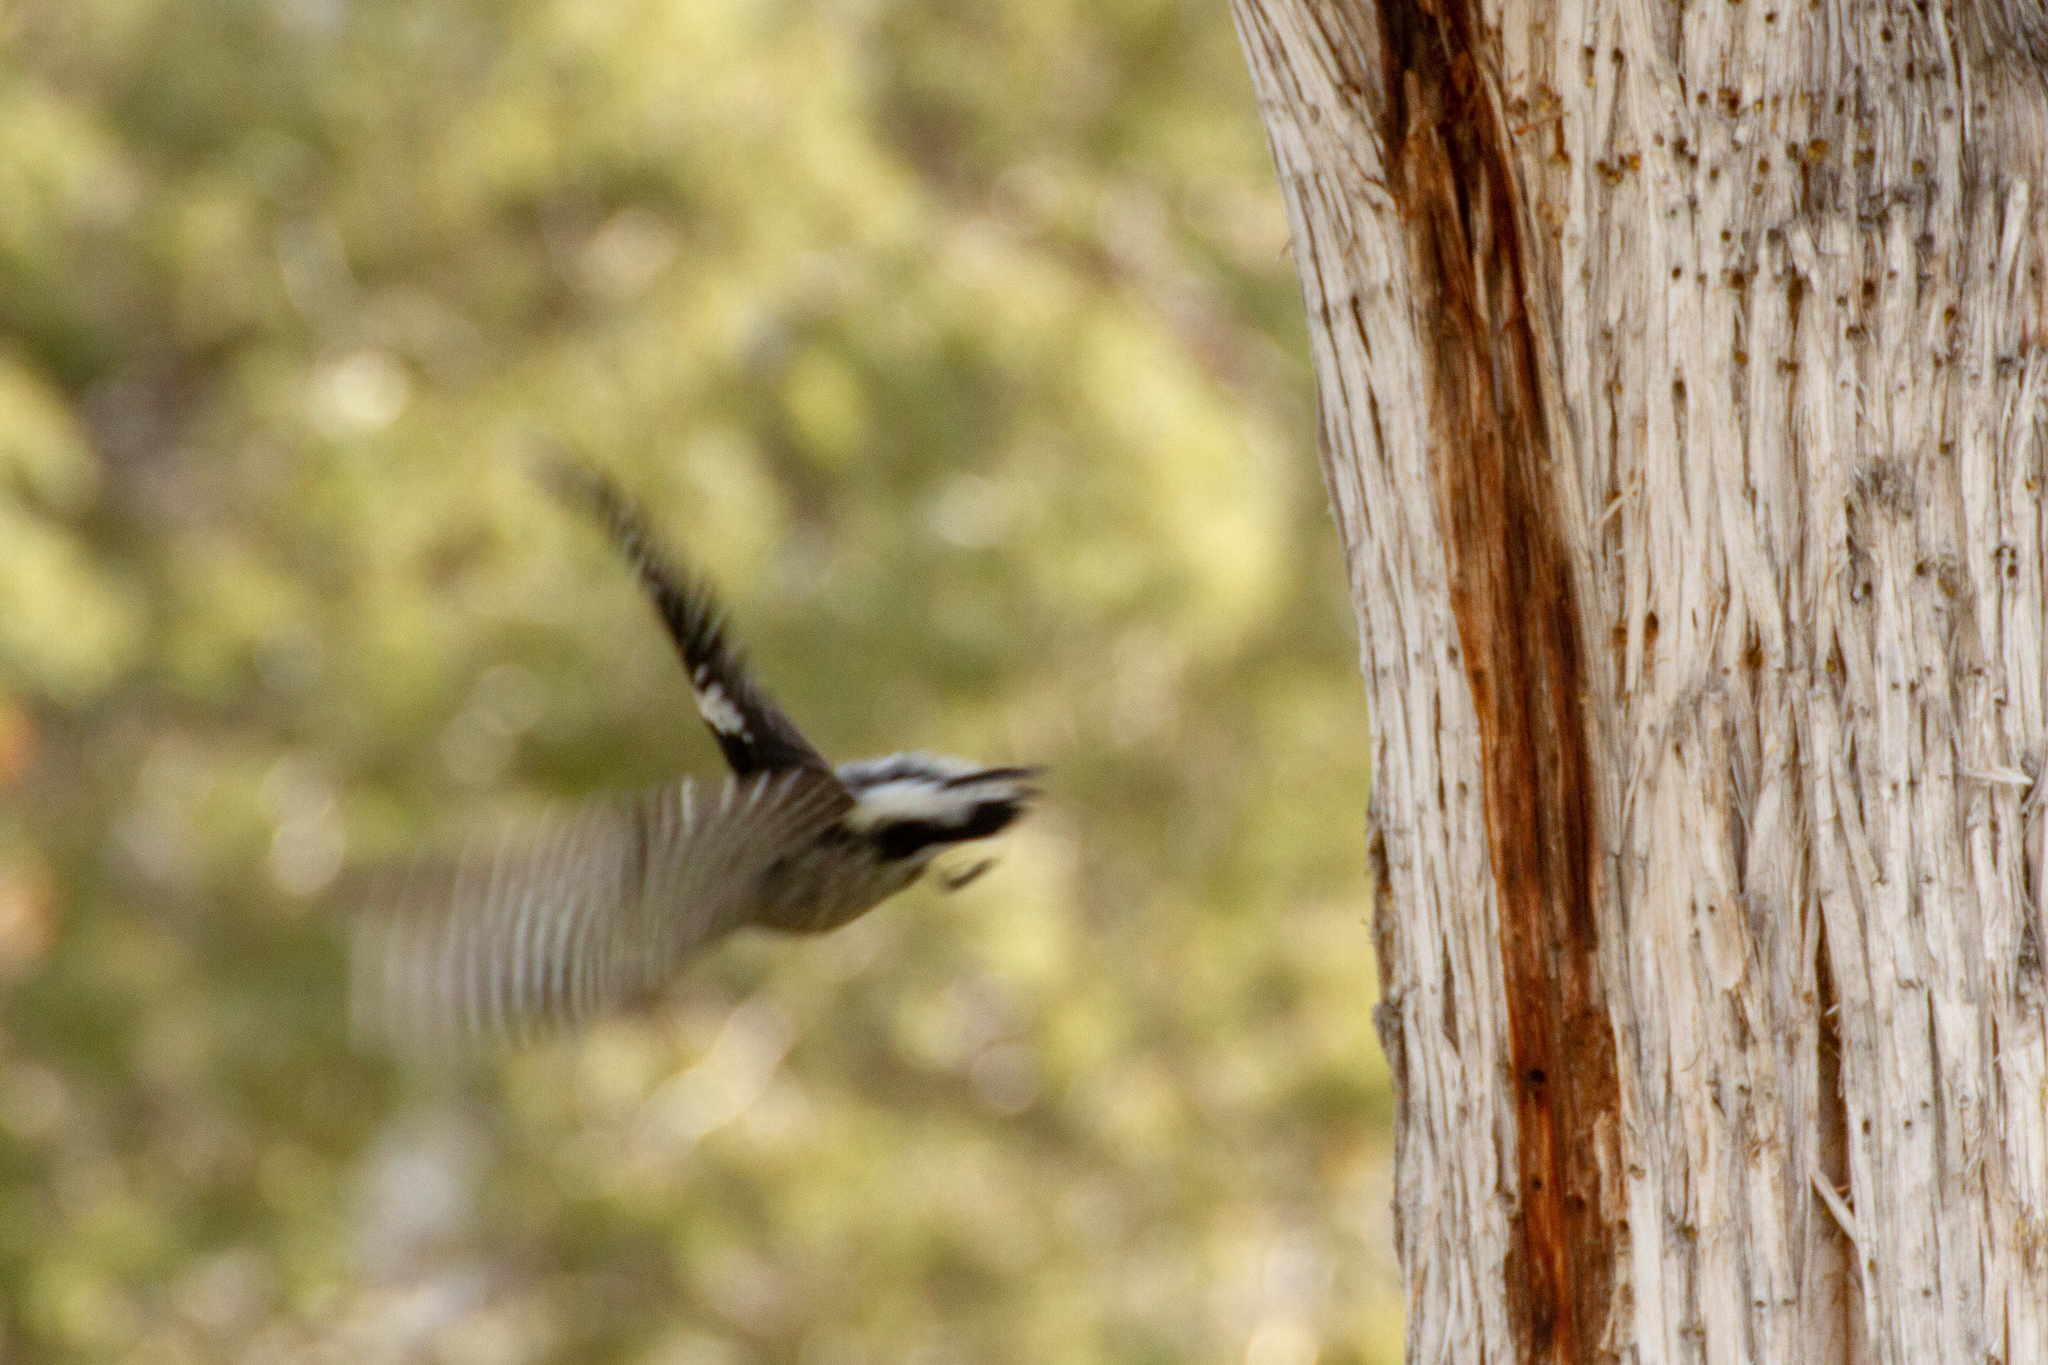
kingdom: Animalia
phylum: Chordata
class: Aves
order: Piciformes
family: Picidae
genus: Sphyrapicus
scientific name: Sphyrapicus nuchalis
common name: Red-naped sapsucker
